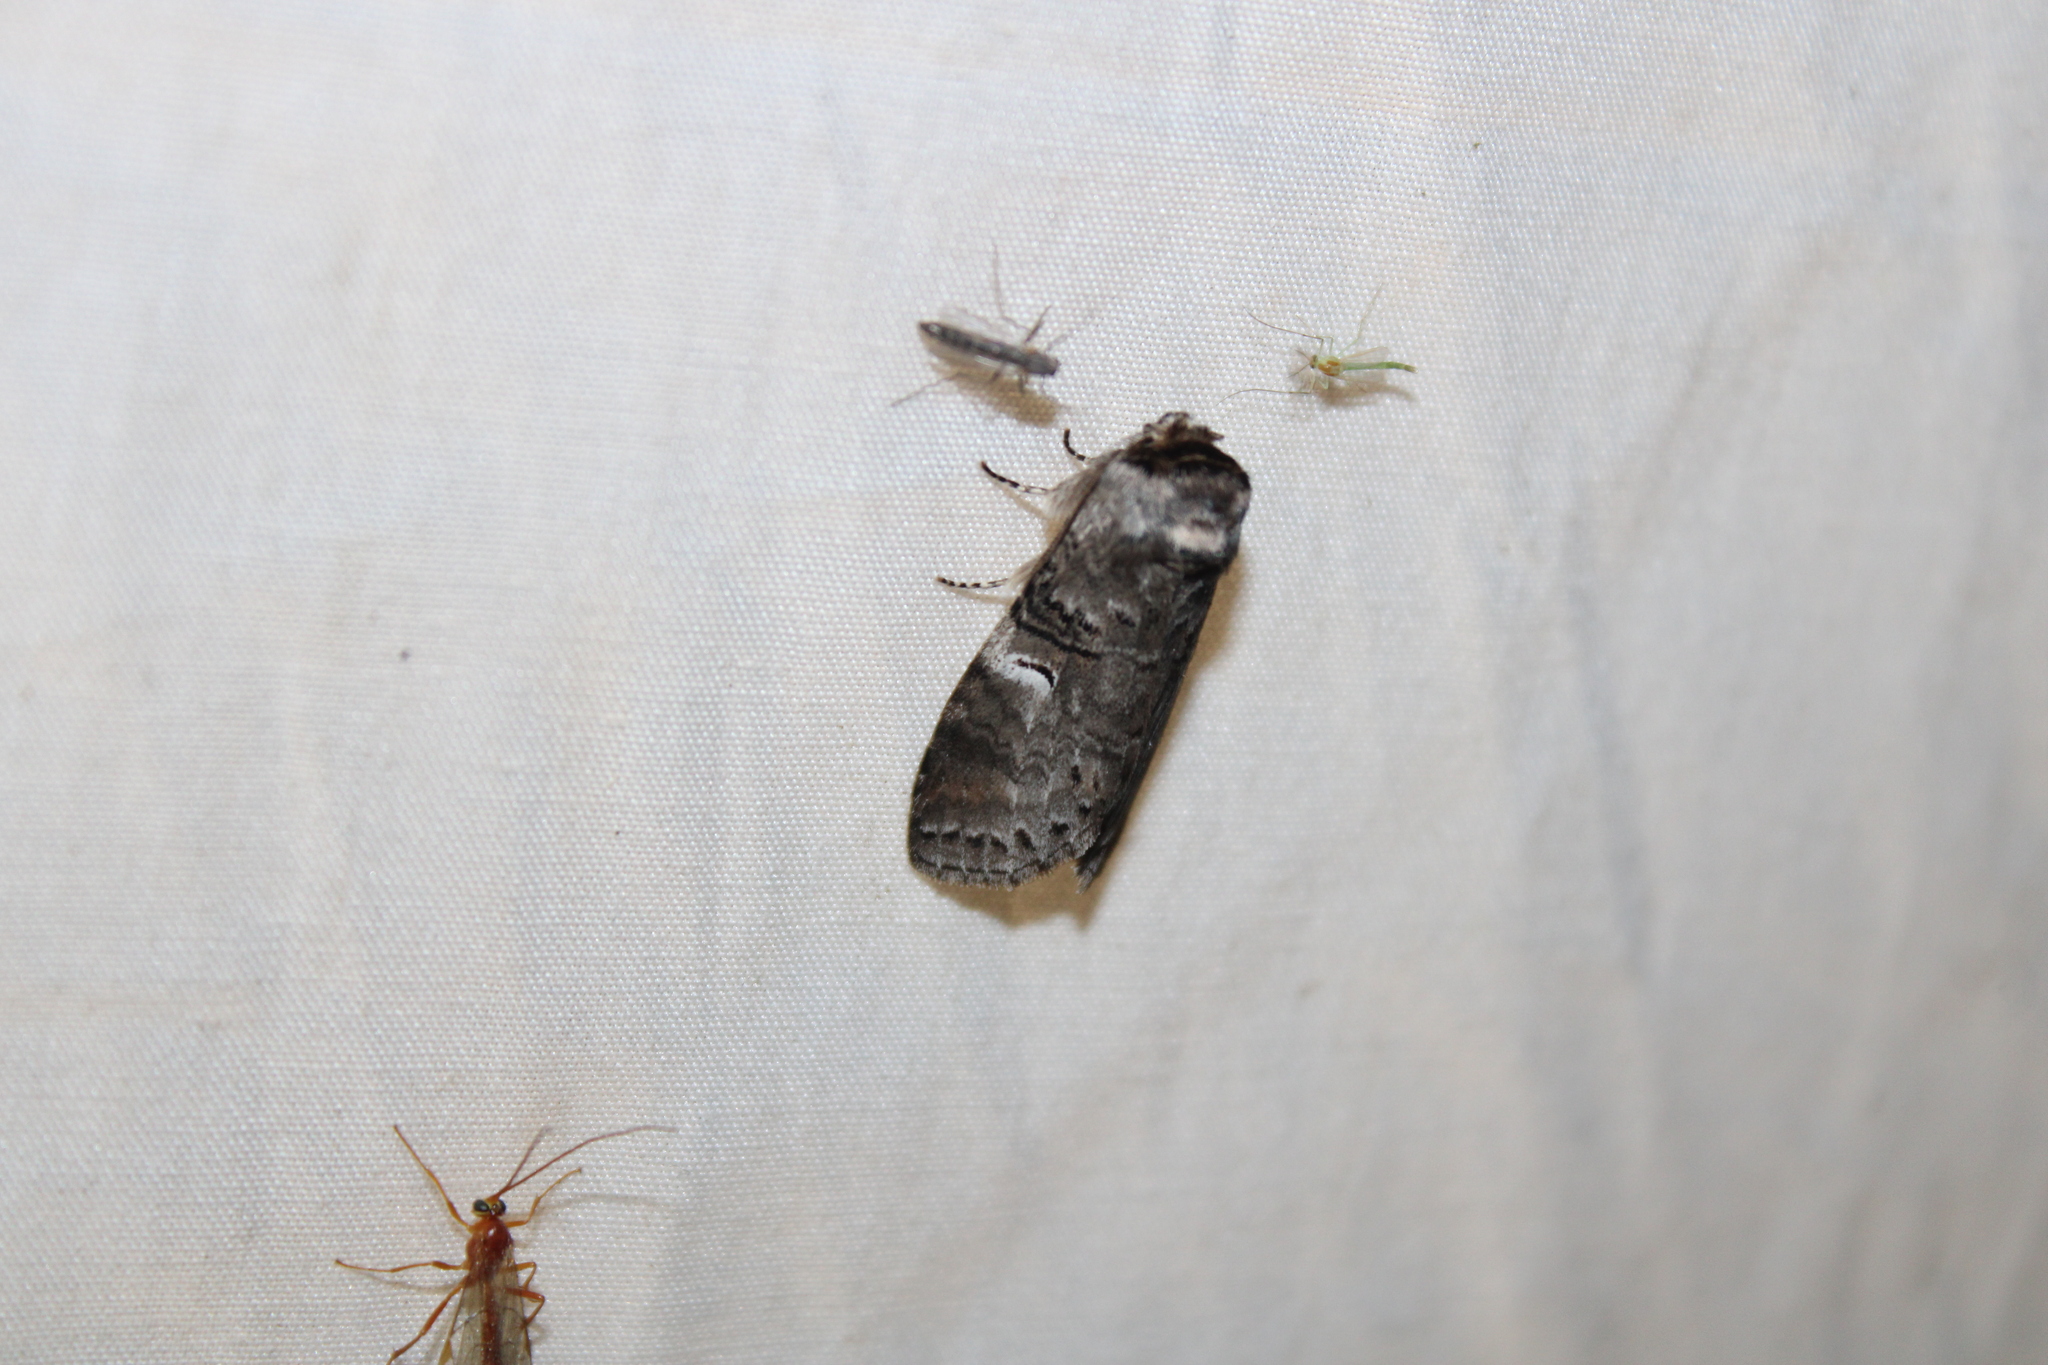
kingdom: Animalia
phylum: Arthropoda
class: Insecta
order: Lepidoptera
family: Notodontidae
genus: Ellida
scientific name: Ellida caniplaga
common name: Linden prominent
